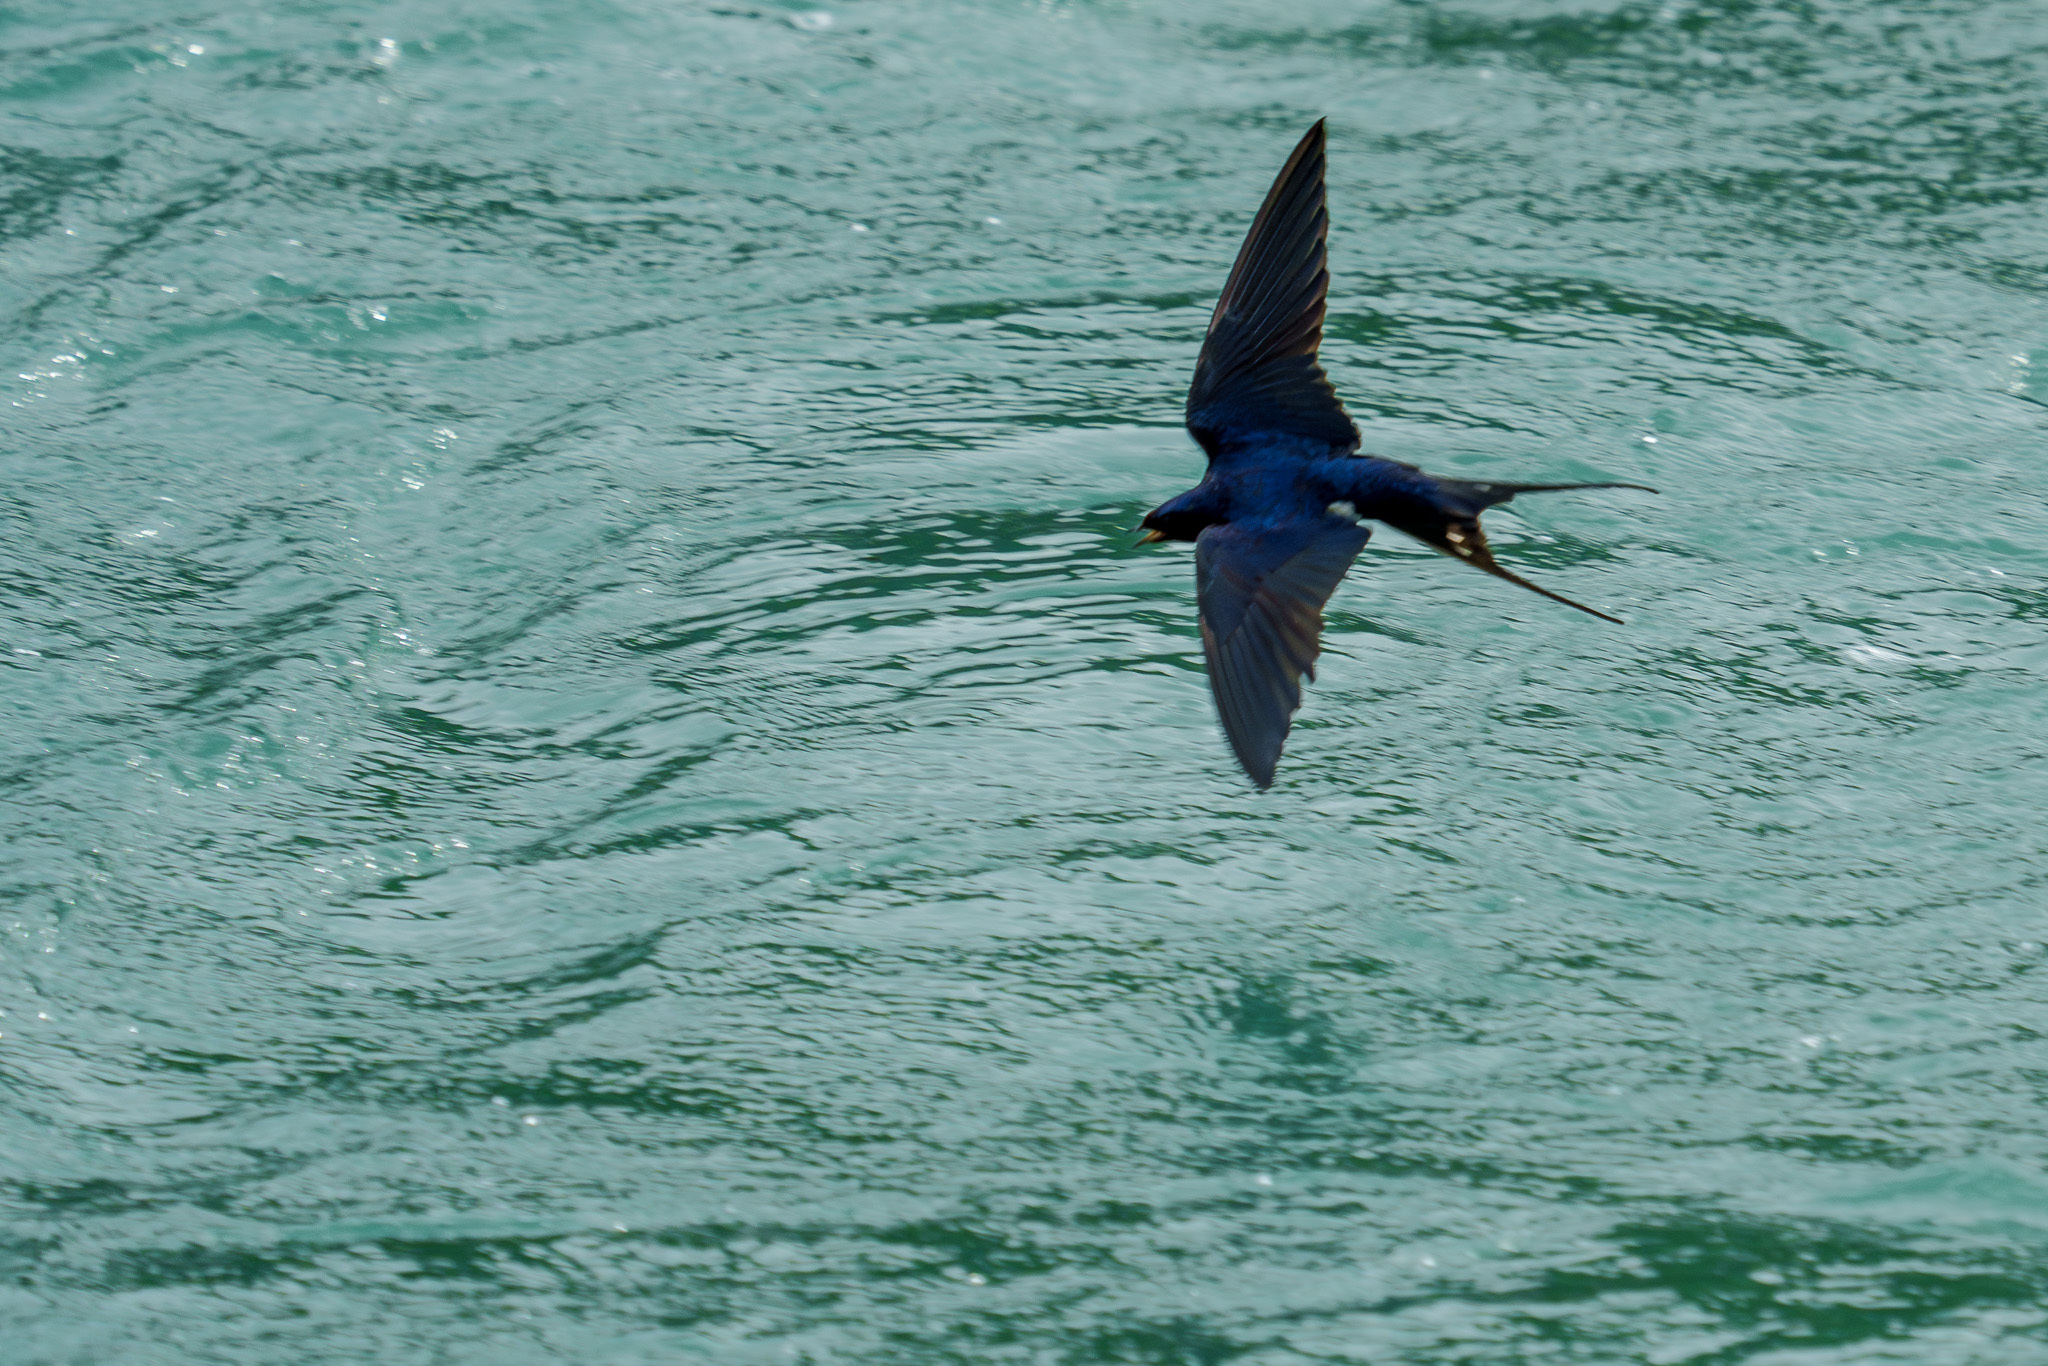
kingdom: Animalia
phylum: Chordata
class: Aves
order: Passeriformes
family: Hirundinidae
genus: Hirundo
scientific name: Hirundo rustica
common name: Barn swallow
